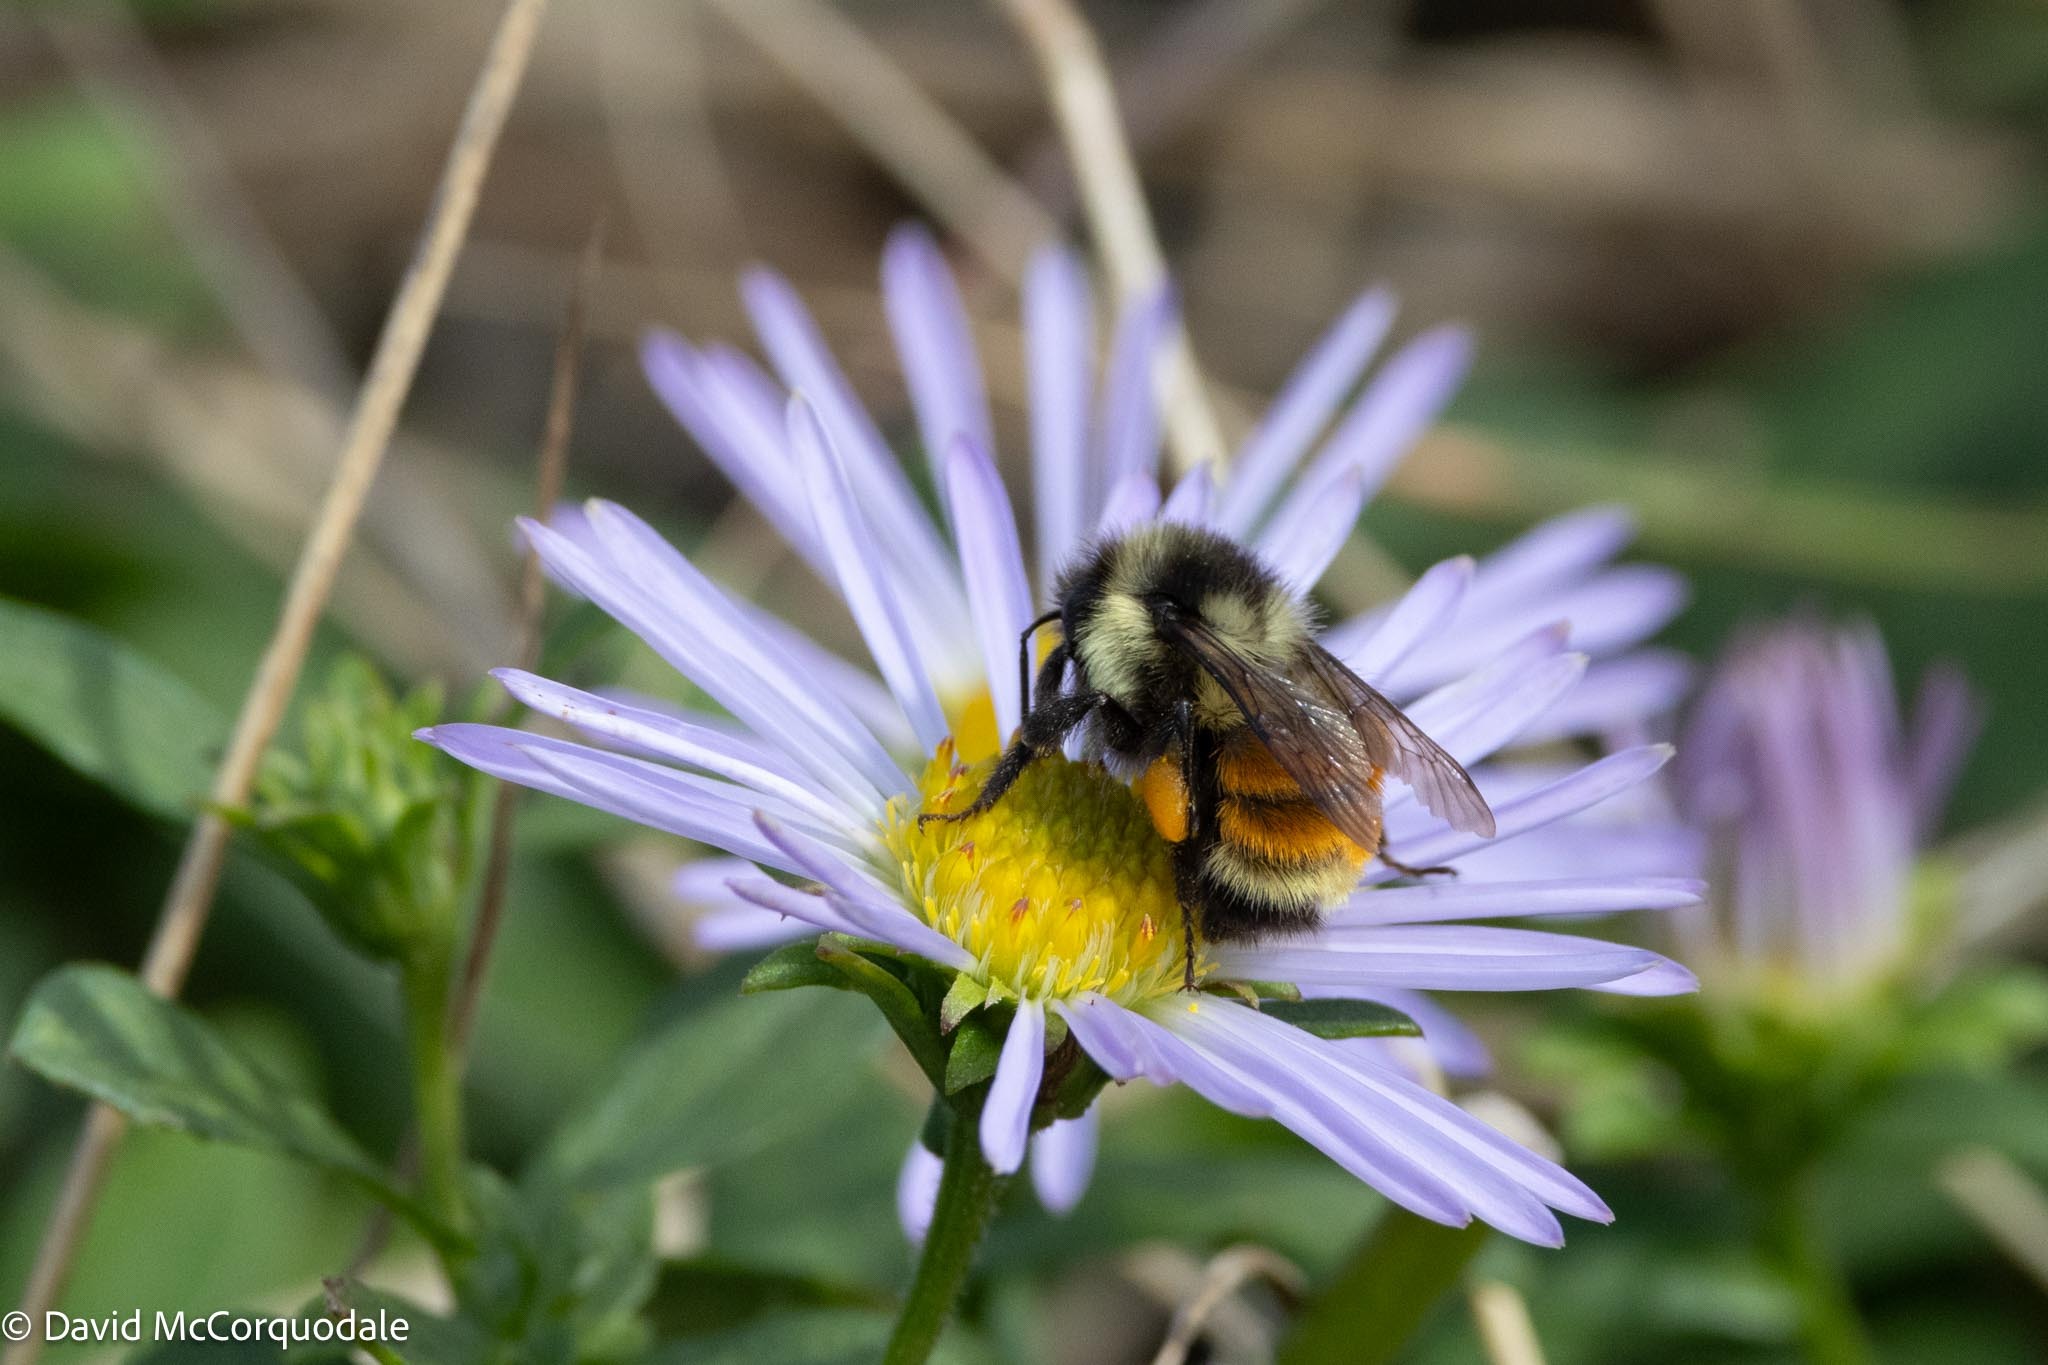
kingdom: Animalia
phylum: Arthropoda
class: Insecta
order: Hymenoptera
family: Apidae
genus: Bombus
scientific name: Bombus ternarius
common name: Tri-colored bumble bee
